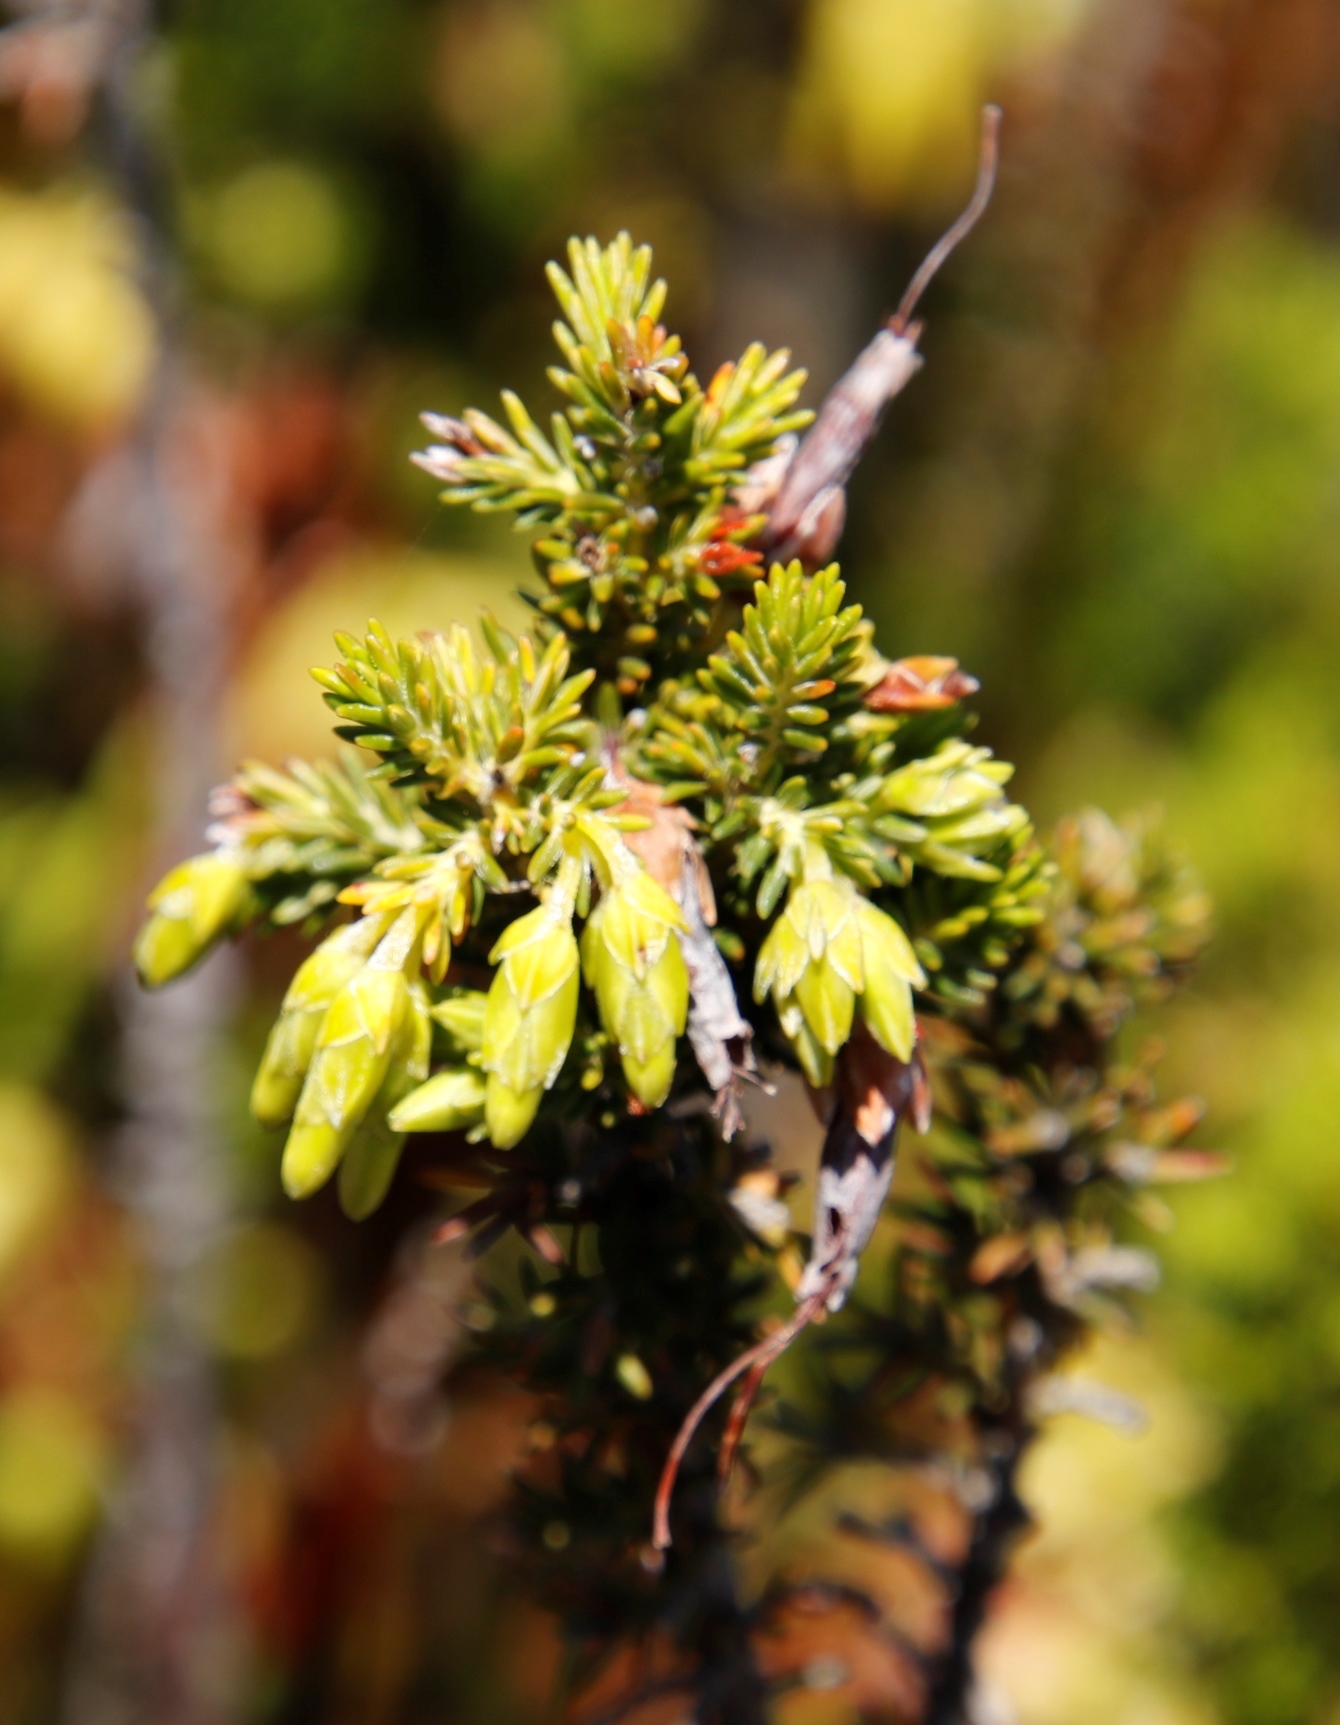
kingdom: Plantae
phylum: Tracheophyta
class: Magnoliopsida
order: Ericales
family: Ericaceae
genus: Erica
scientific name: Erica coccinea
